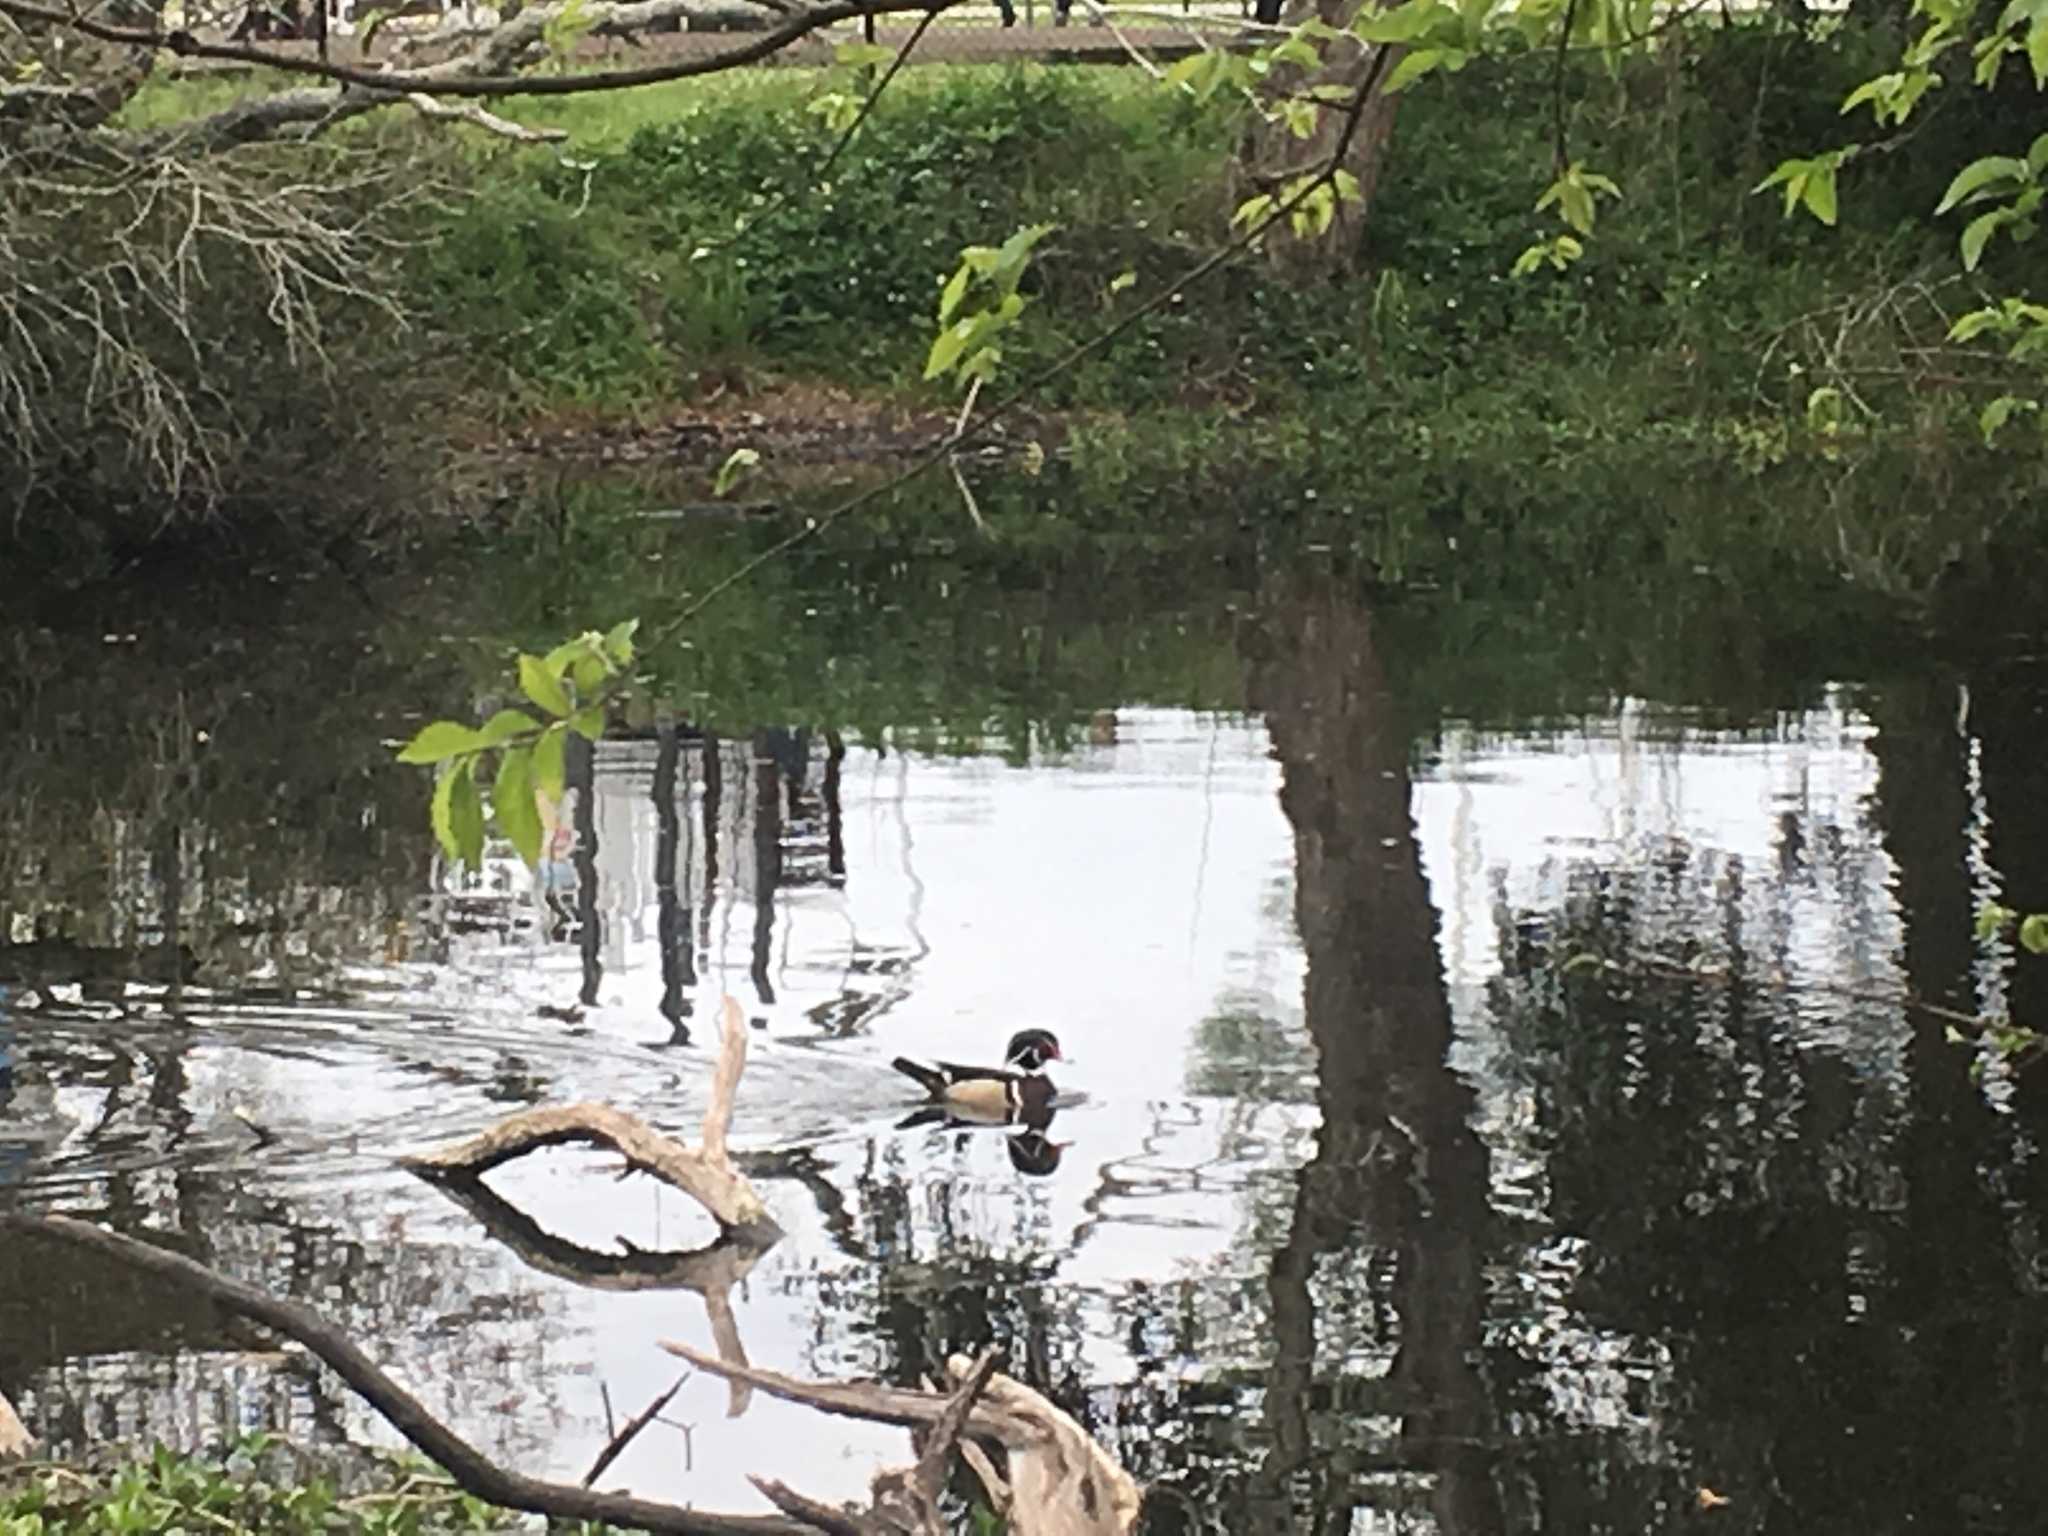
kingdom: Animalia
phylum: Chordata
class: Aves
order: Anseriformes
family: Anatidae
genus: Aix
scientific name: Aix sponsa
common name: Wood duck
